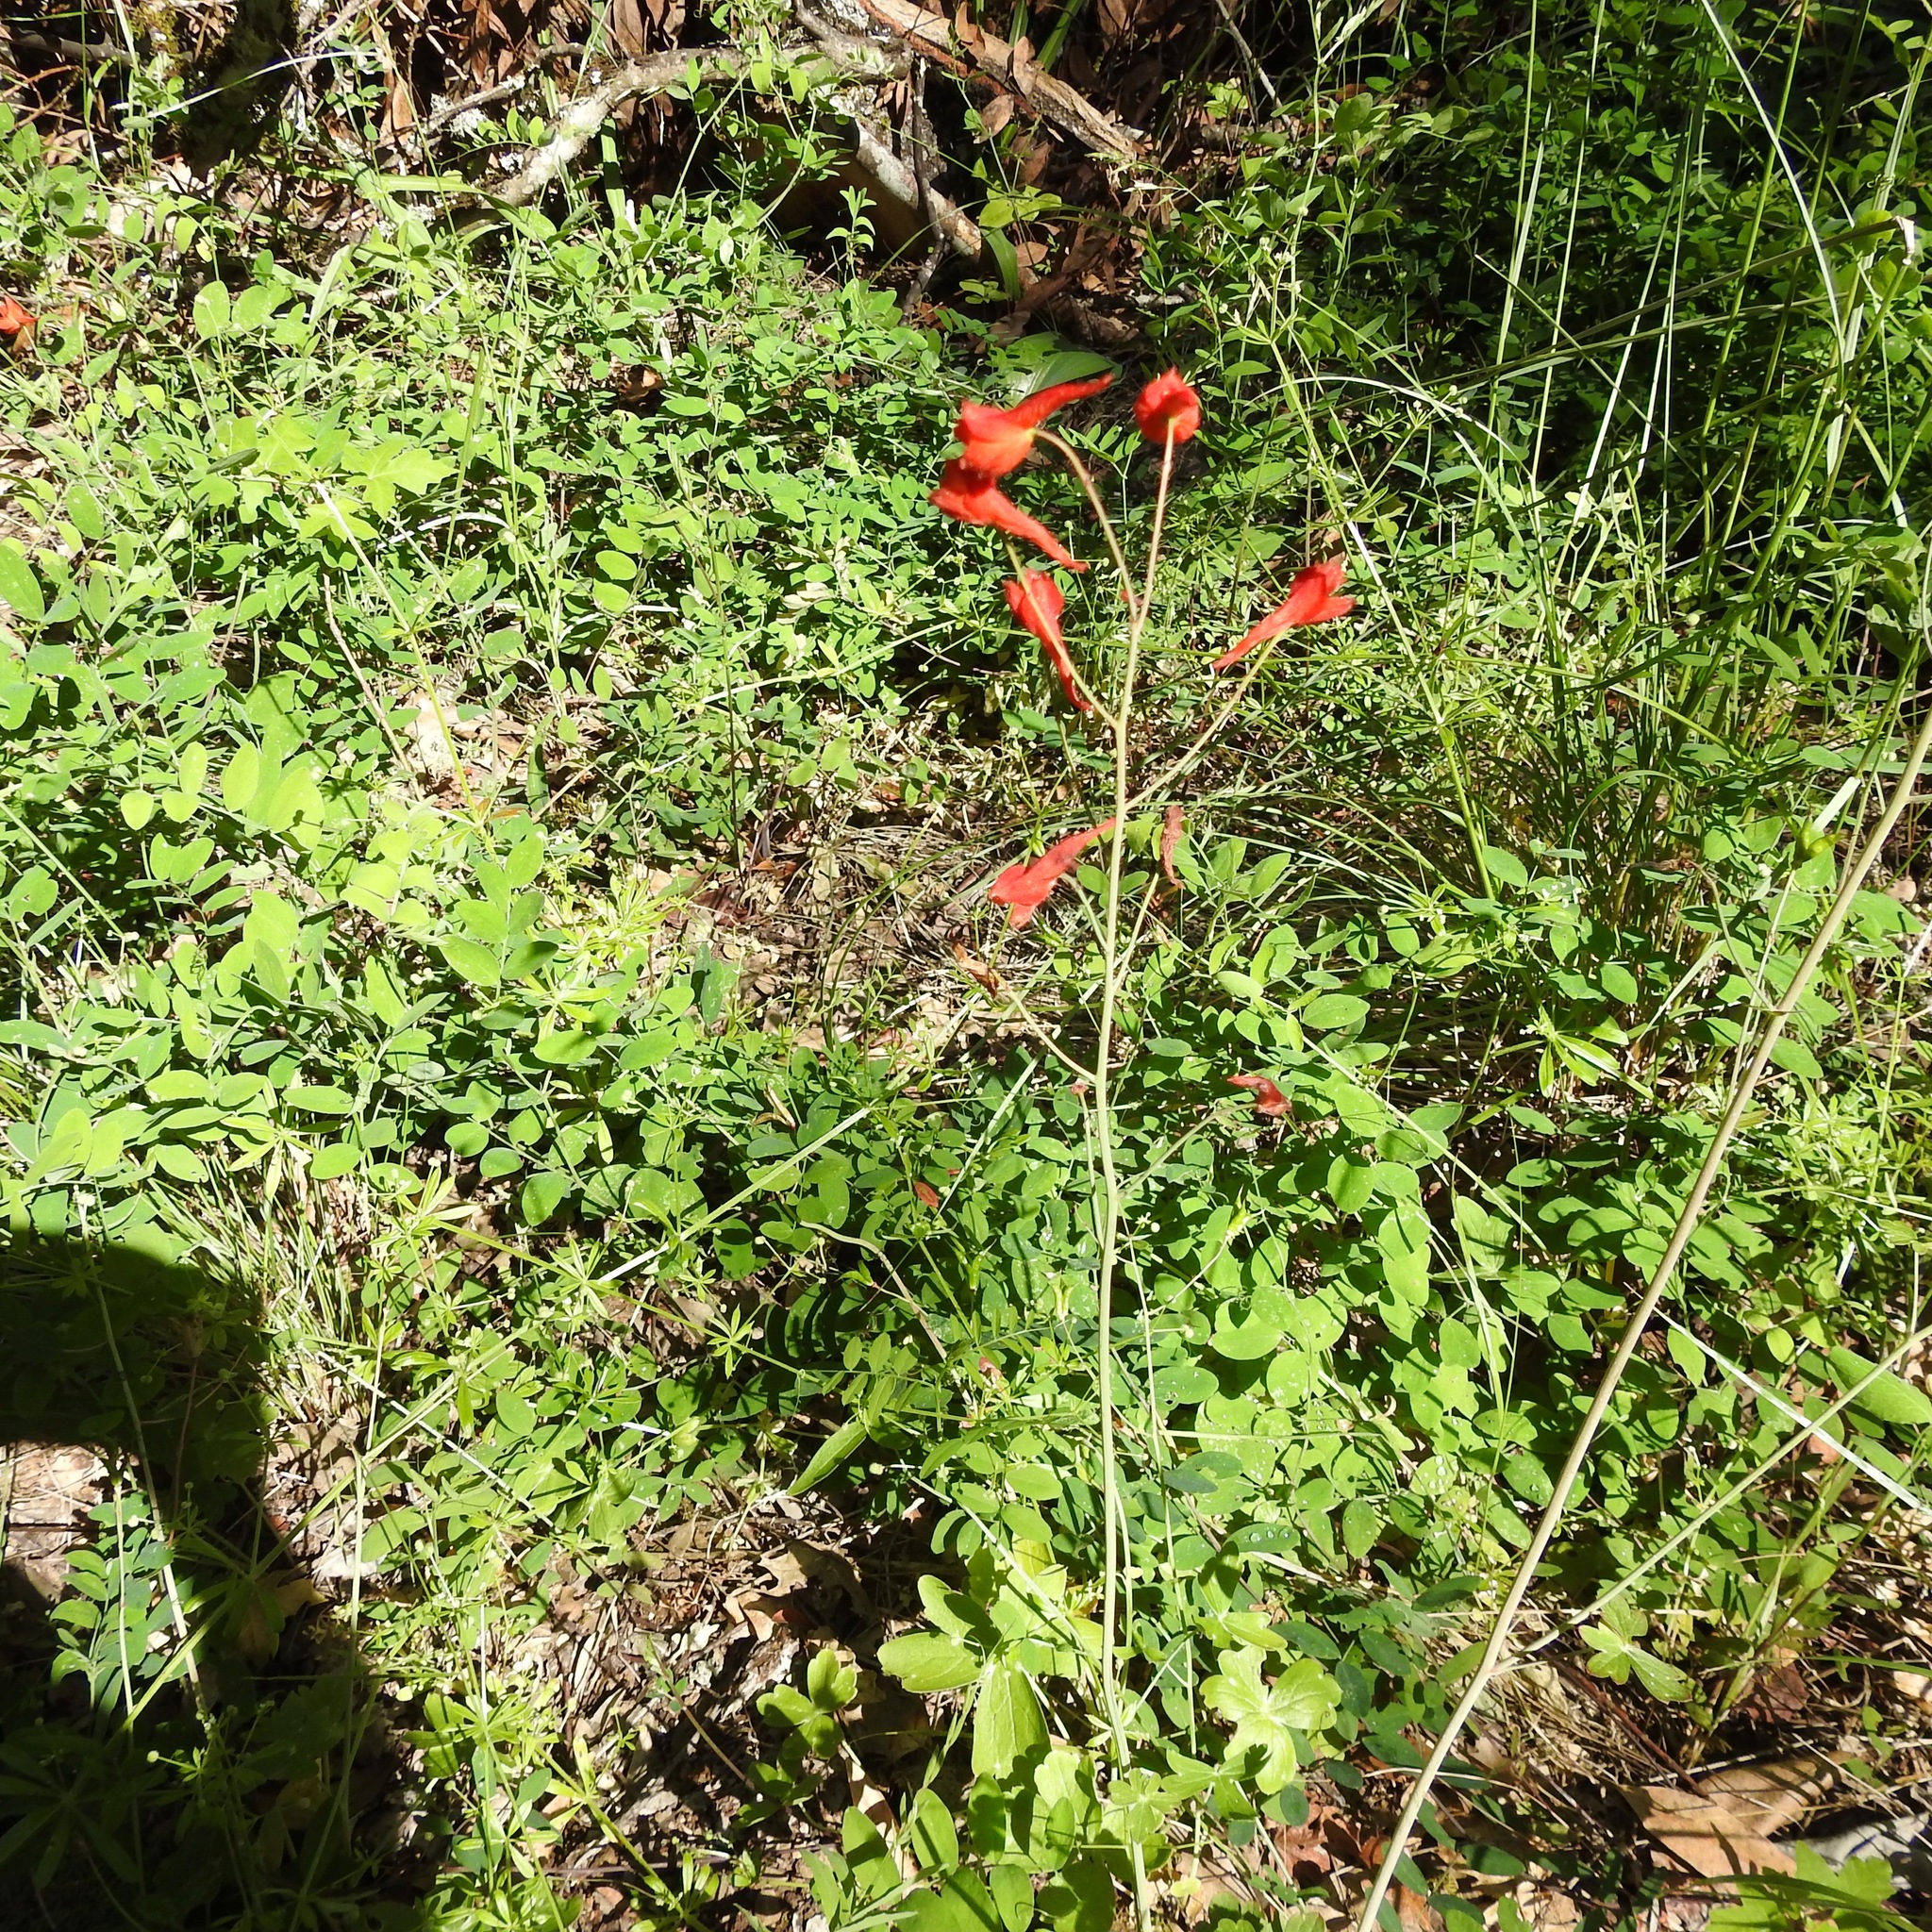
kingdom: Plantae
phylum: Tracheophyta
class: Magnoliopsida
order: Ranunculales
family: Ranunculaceae
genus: Delphinium
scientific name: Delphinium nudicaule
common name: Red larkspur
